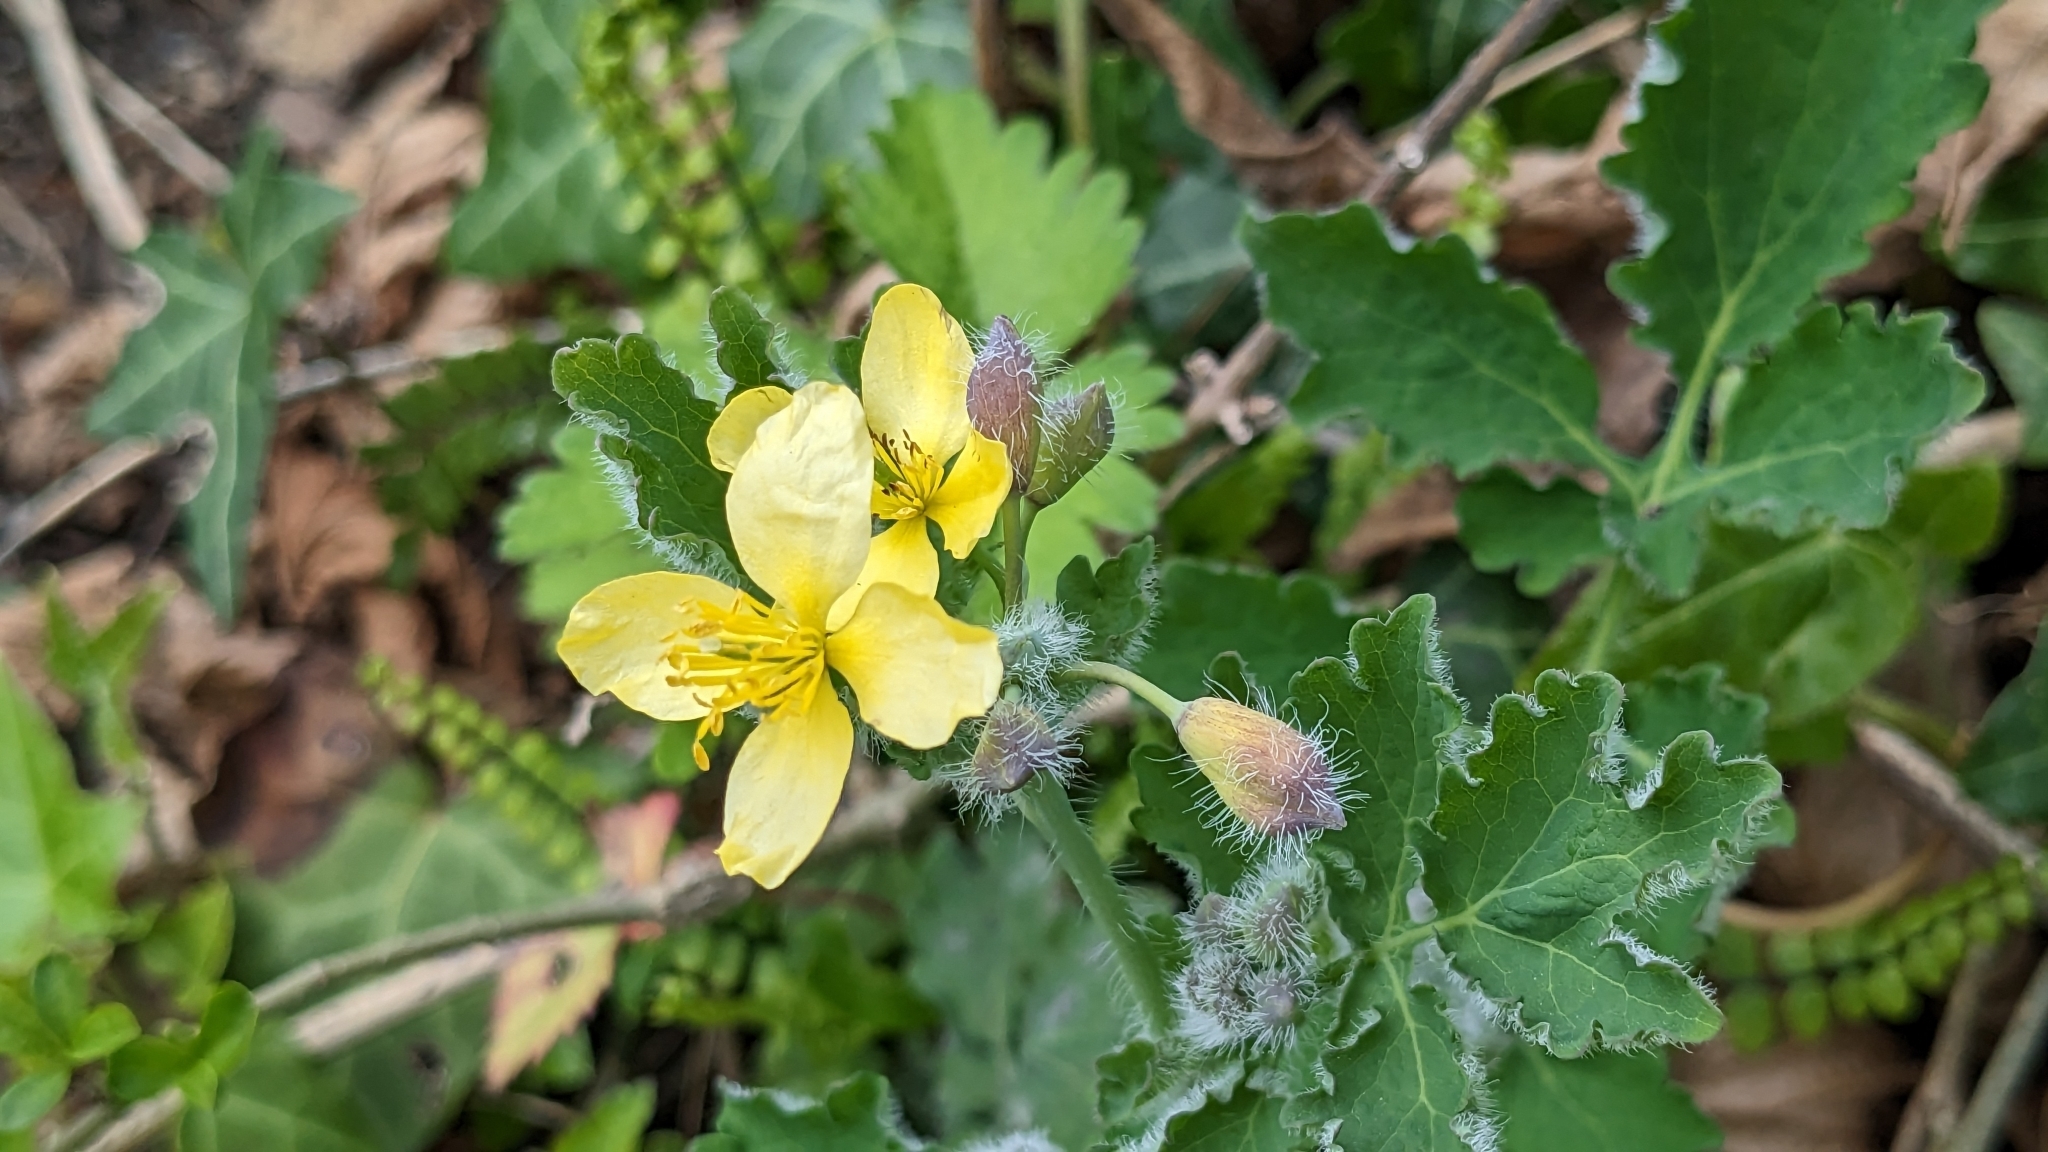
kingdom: Plantae
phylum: Tracheophyta
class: Magnoliopsida
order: Ranunculales
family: Papaveraceae
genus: Chelidonium
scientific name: Chelidonium majus
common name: Greater celandine
